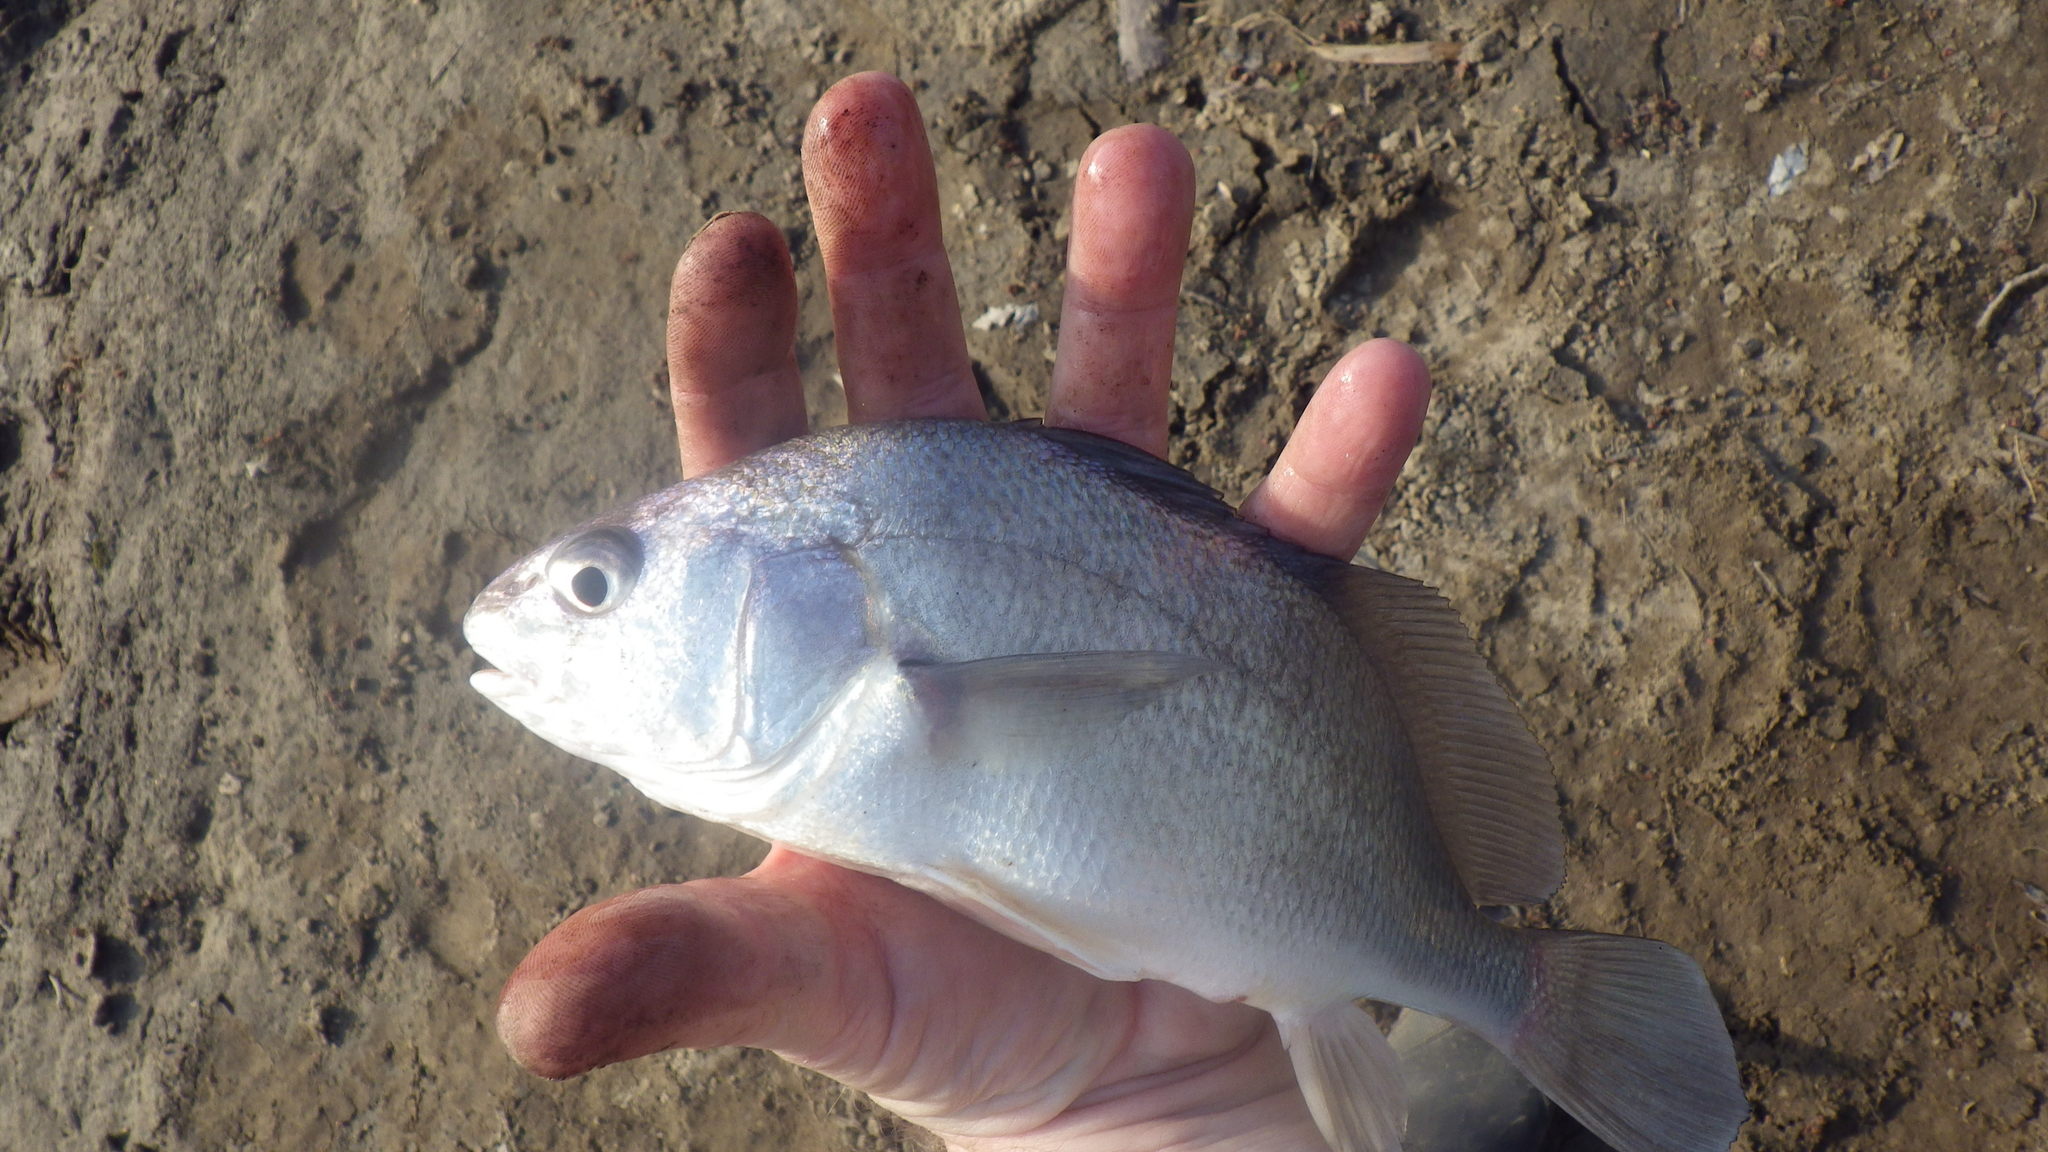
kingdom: Animalia
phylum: Chordata
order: Perciformes
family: Sciaenidae
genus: Aplodinotus
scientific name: Aplodinotus grunniens
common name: Freshwater drum
